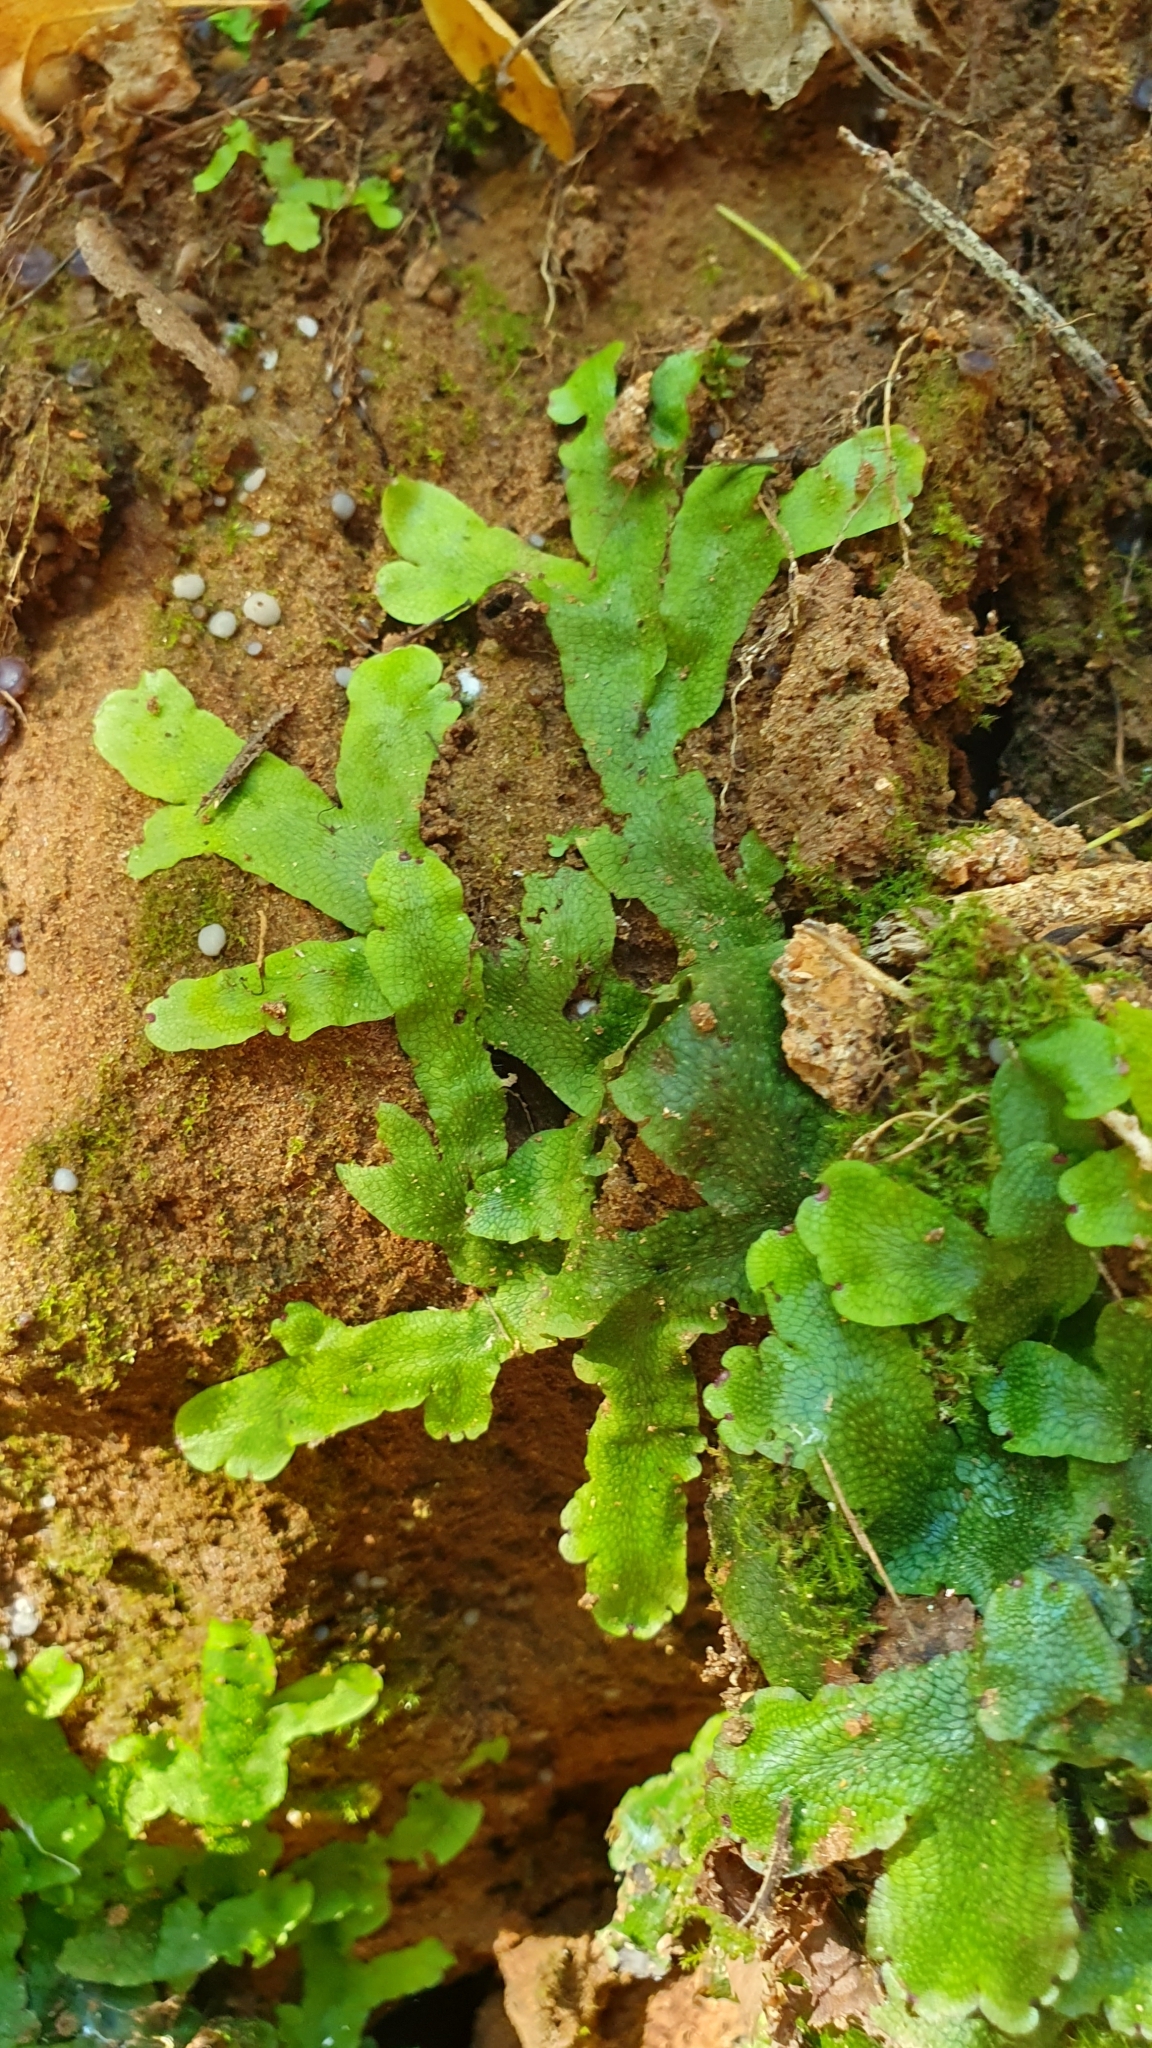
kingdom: Plantae
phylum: Marchantiophyta
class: Marchantiopsida
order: Marchantiales
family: Conocephalaceae
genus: Conocephalum
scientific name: Conocephalum salebrosum
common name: Cat-tongue liverwort
